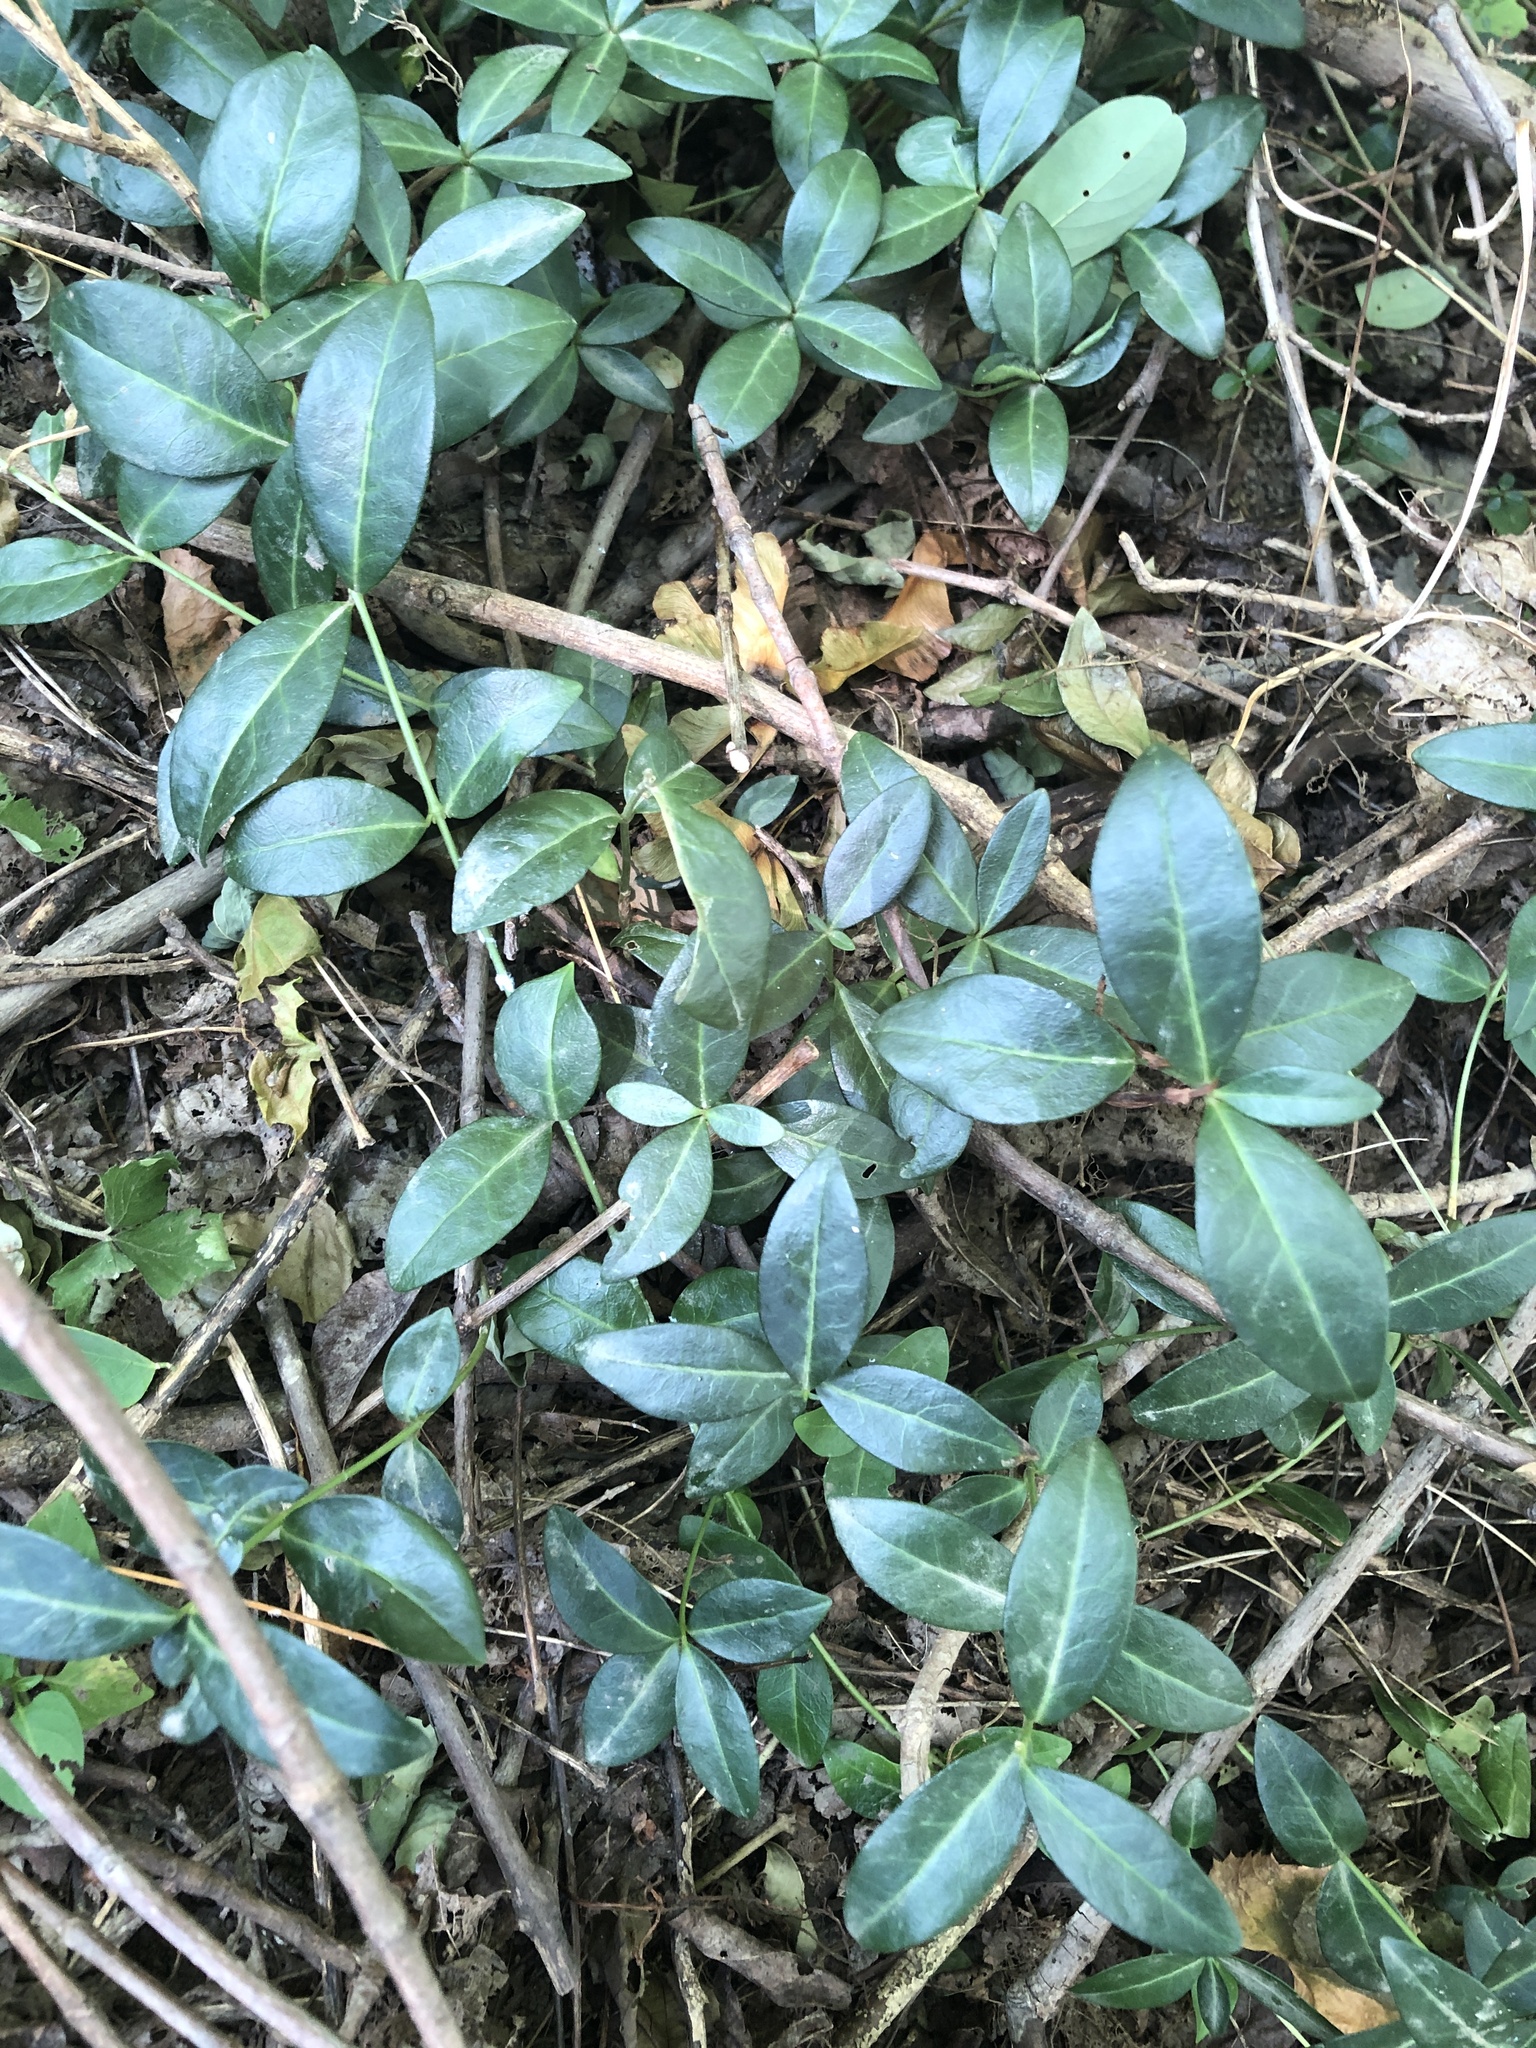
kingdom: Plantae
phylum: Tracheophyta
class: Magnoliopsida
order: Gentianales
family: Apocynaceae
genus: Vinca
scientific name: Vinca minor
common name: Lesser periwinkle
